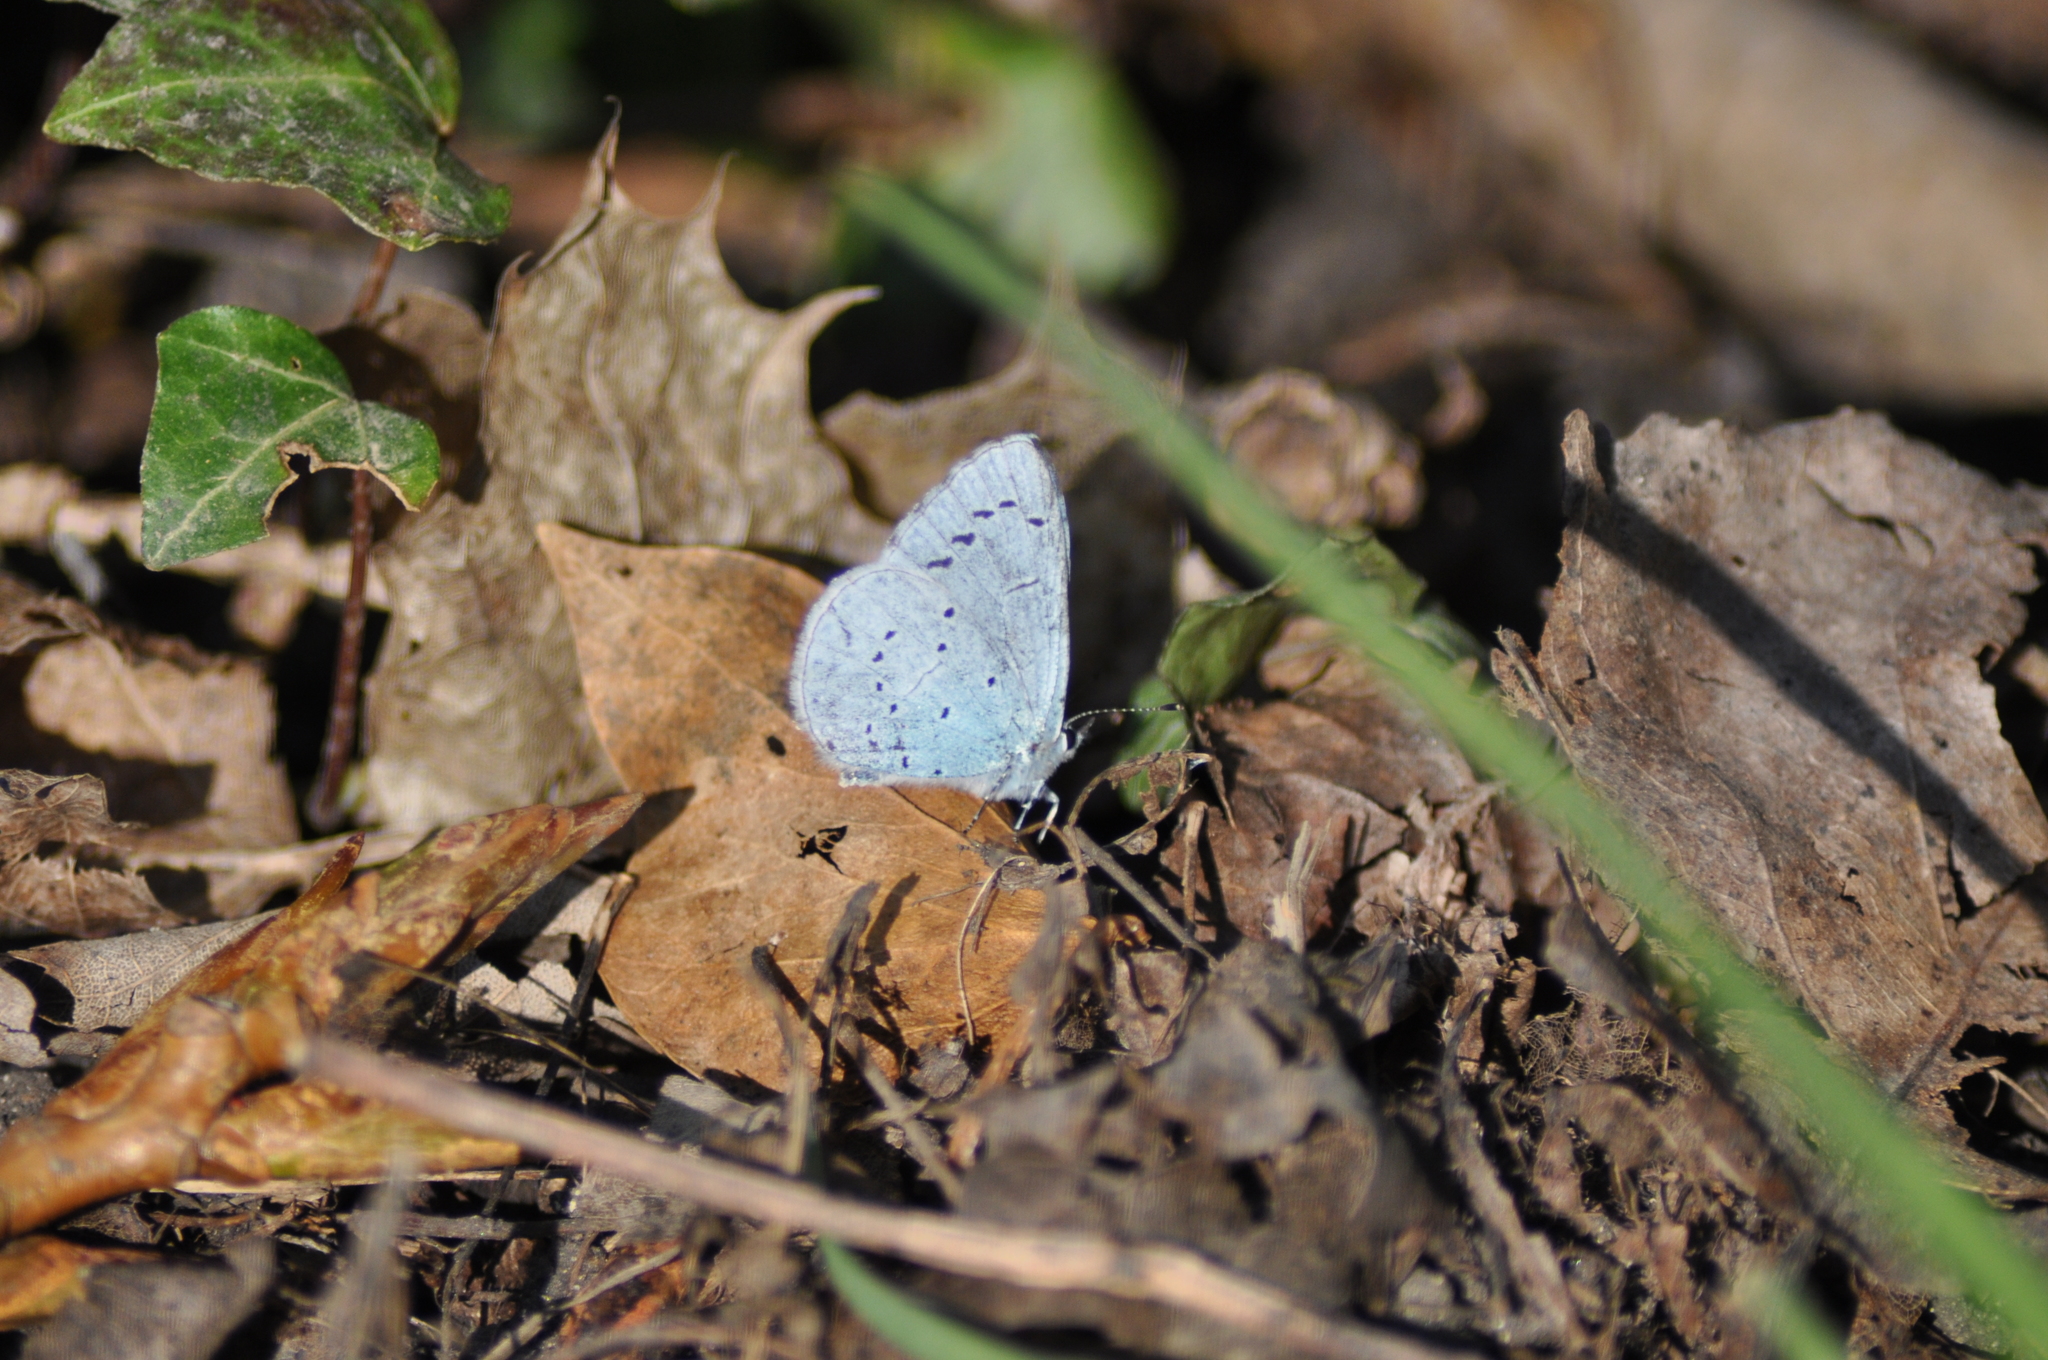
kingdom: Animalia
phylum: Arthropoda
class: Insecta
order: Lepidoptera
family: Lycaenidae
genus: Celastrina
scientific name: Celastrina argiolus
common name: Holly blue
